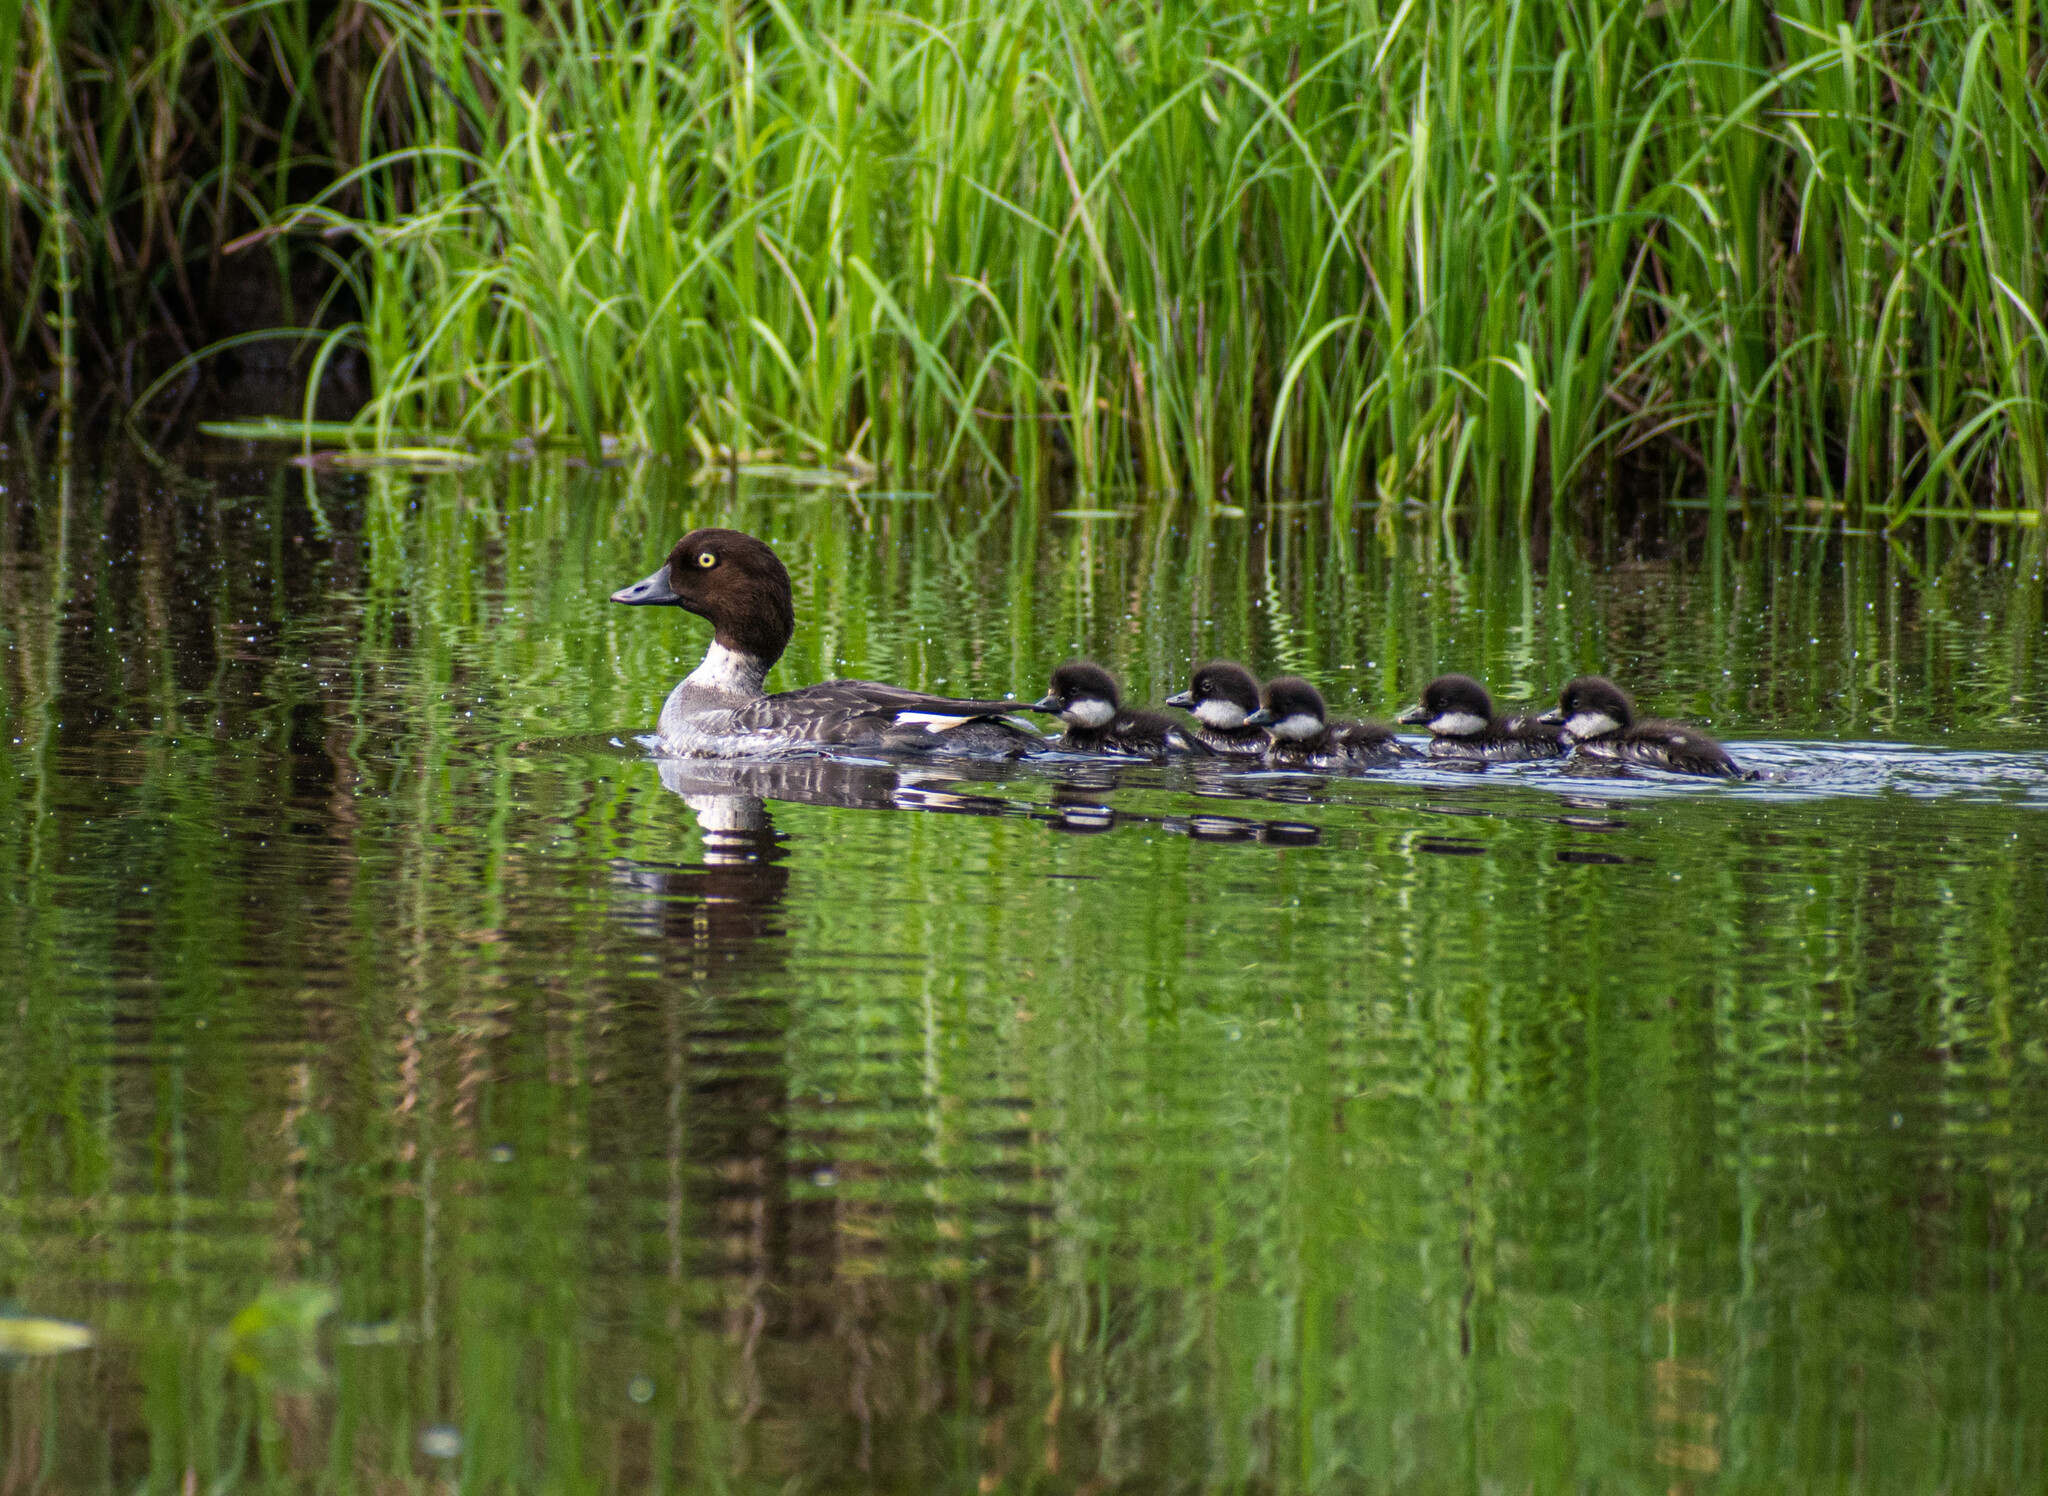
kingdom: Animalia
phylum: Chordata
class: Aves
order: Anseriformes
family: Anatidae
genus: Bucephala
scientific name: Bucephala clangula
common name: Common goldeneye
